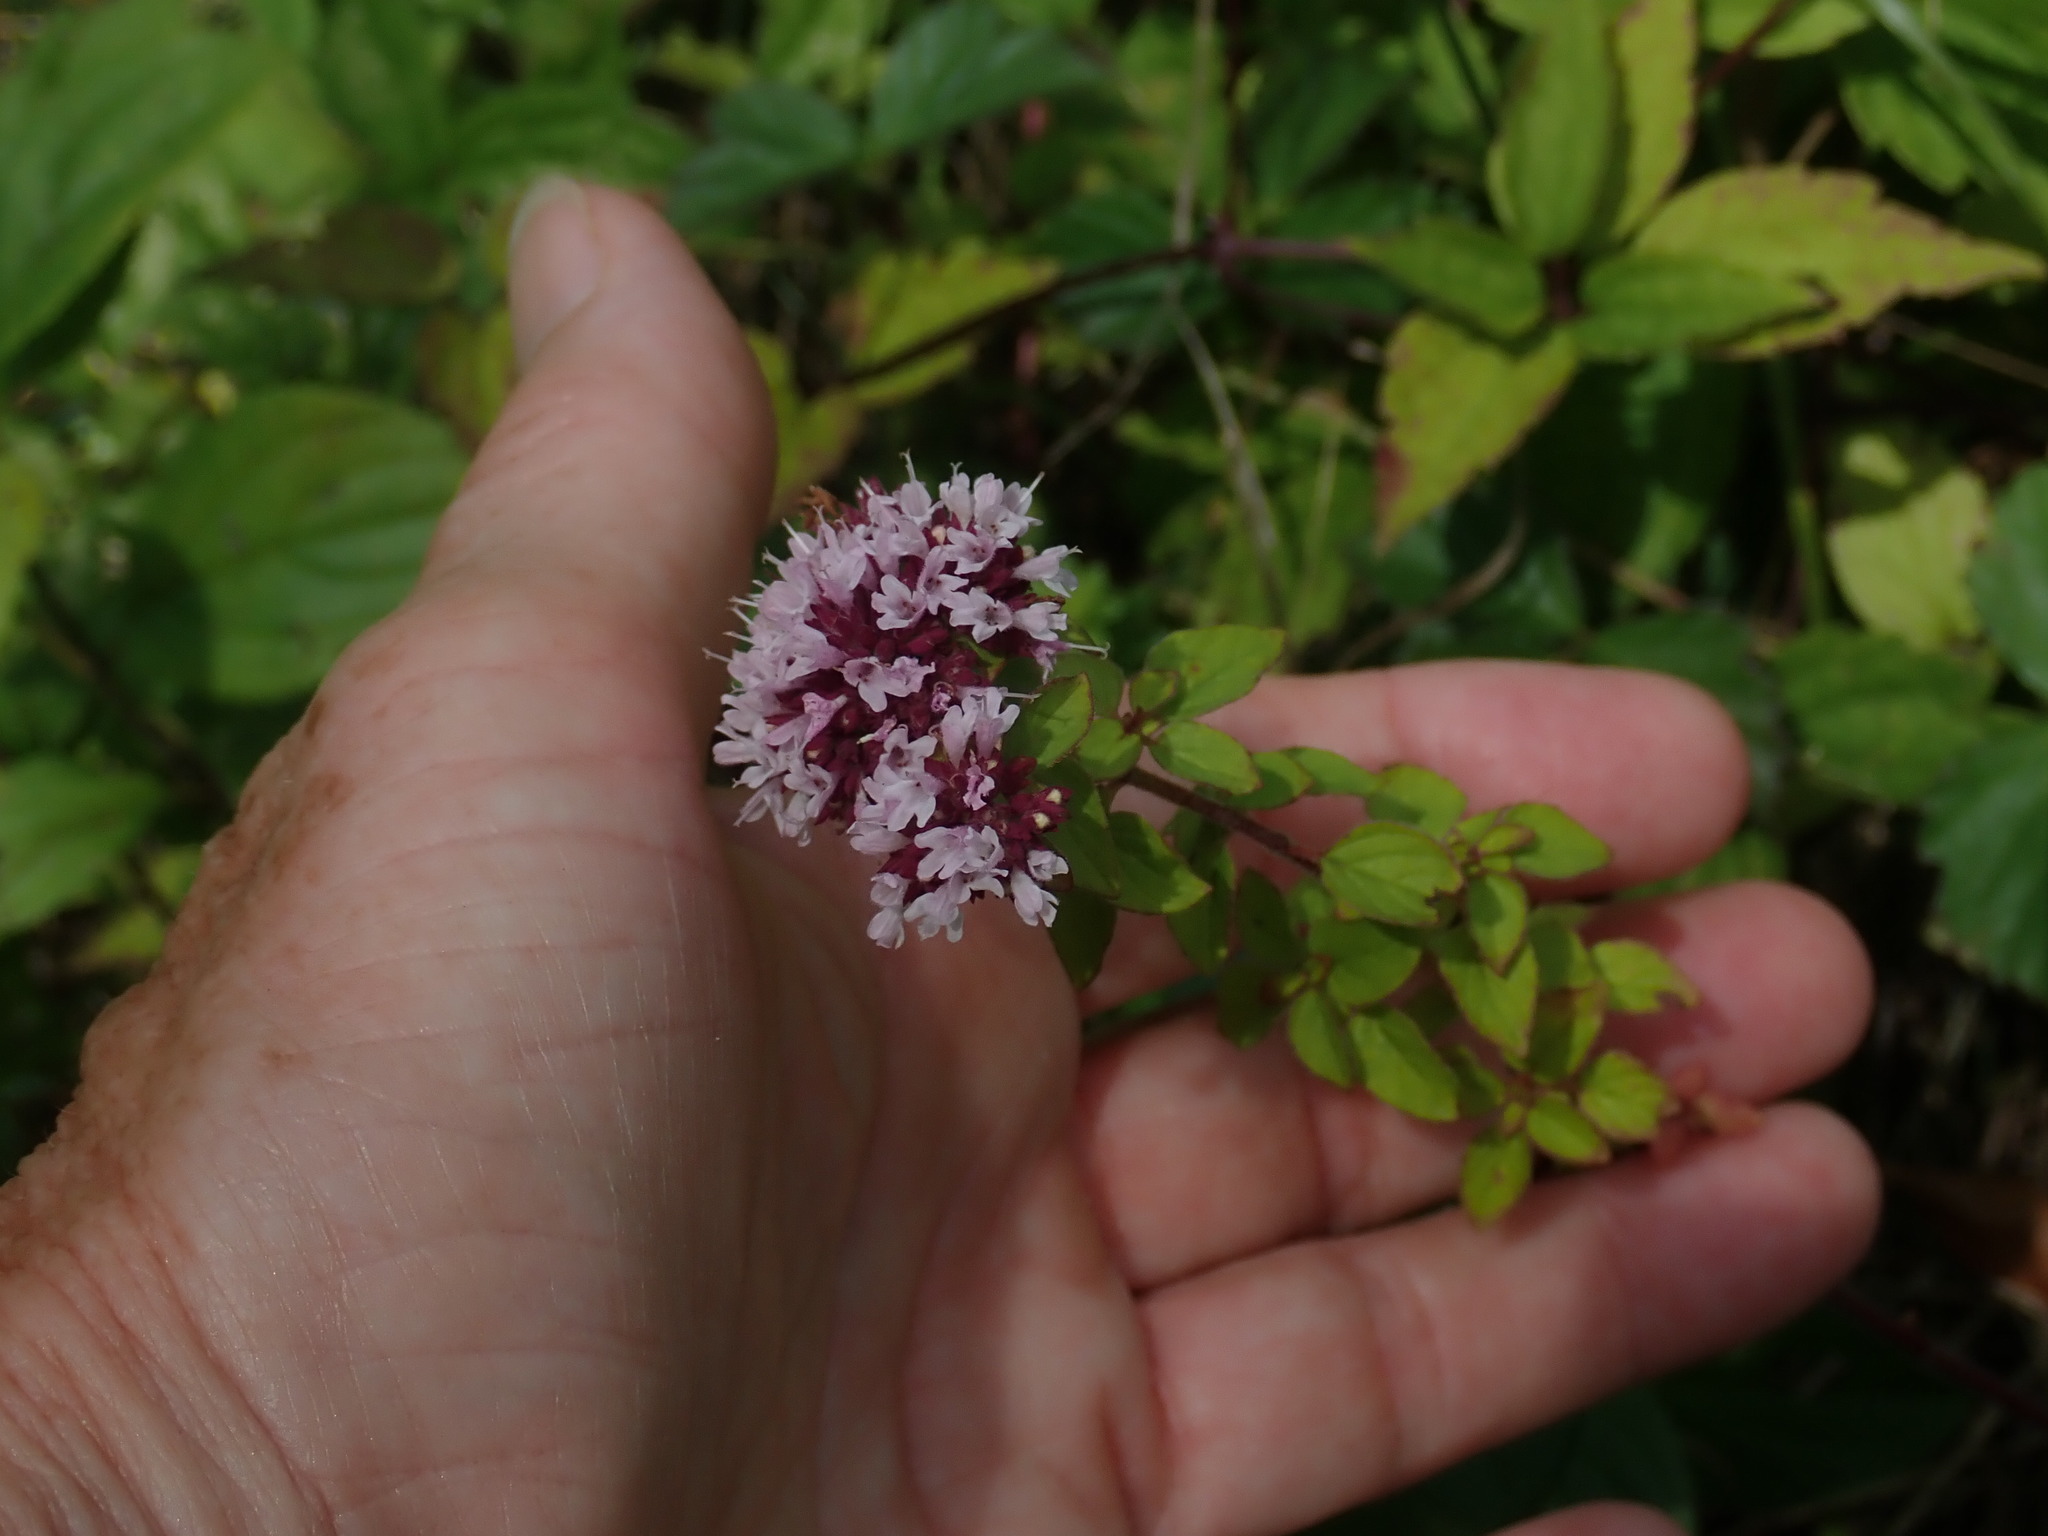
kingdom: Plantae
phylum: Tracheophyta
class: Magnoliopsida
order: Lamiales
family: Lamiaceae
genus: Origanum
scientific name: Origanum vulgare
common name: Wild marjoram
